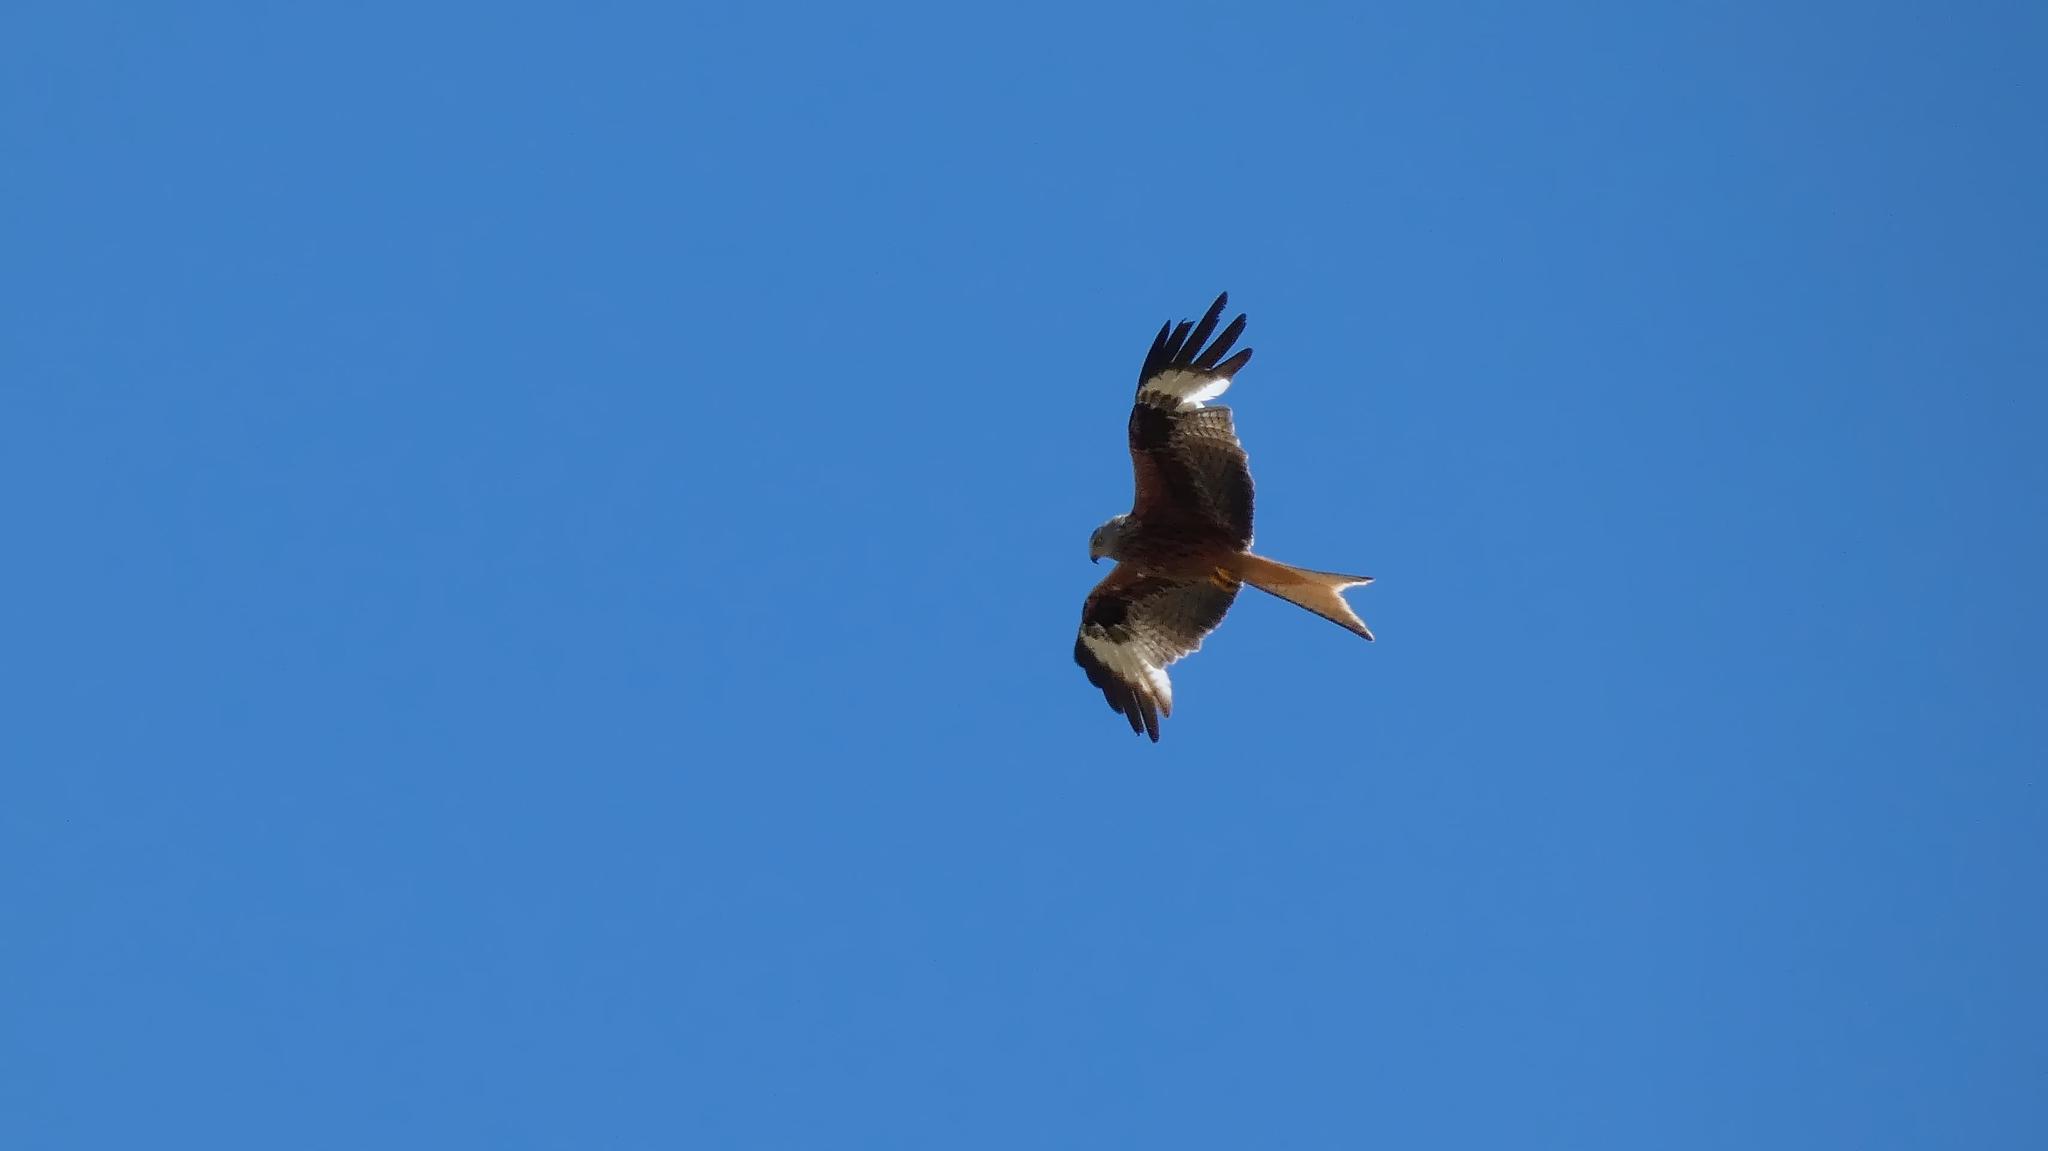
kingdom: Animalia
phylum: Chordata
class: Aves
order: Accipitriformes
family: Accipitridae
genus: Milvus
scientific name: Milvus milvus
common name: Red kite
